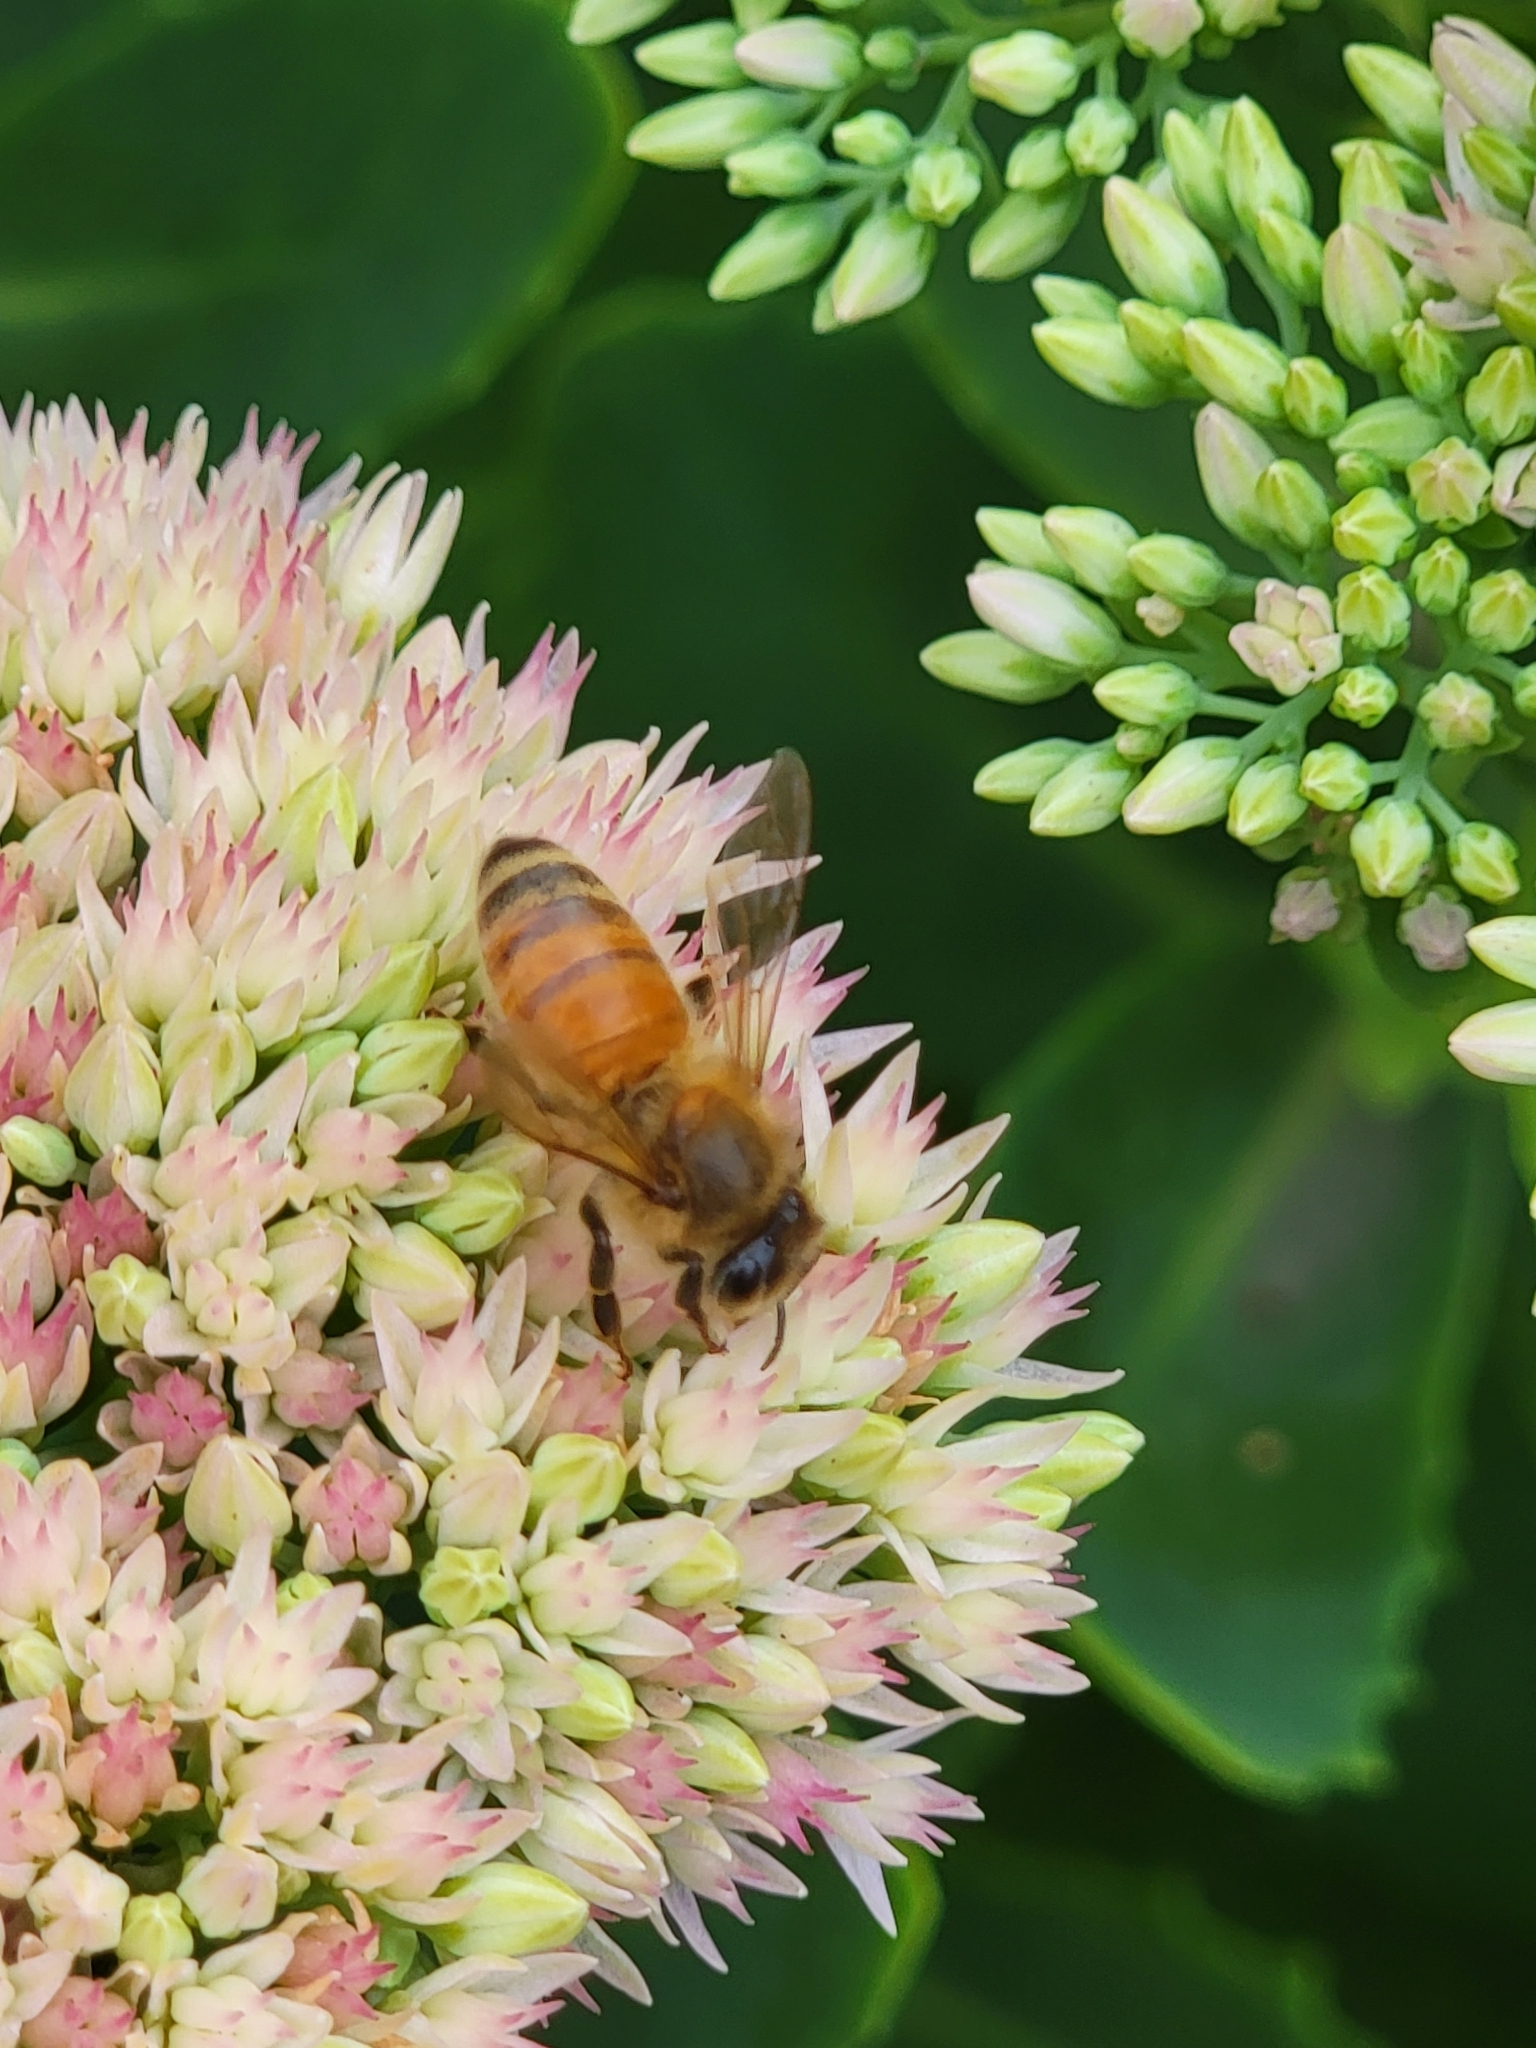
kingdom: Animalia
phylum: Arthropoda
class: Insecta
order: Hymenoptera
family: Apidae
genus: Apis
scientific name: Apis mellifera
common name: Honey bee
